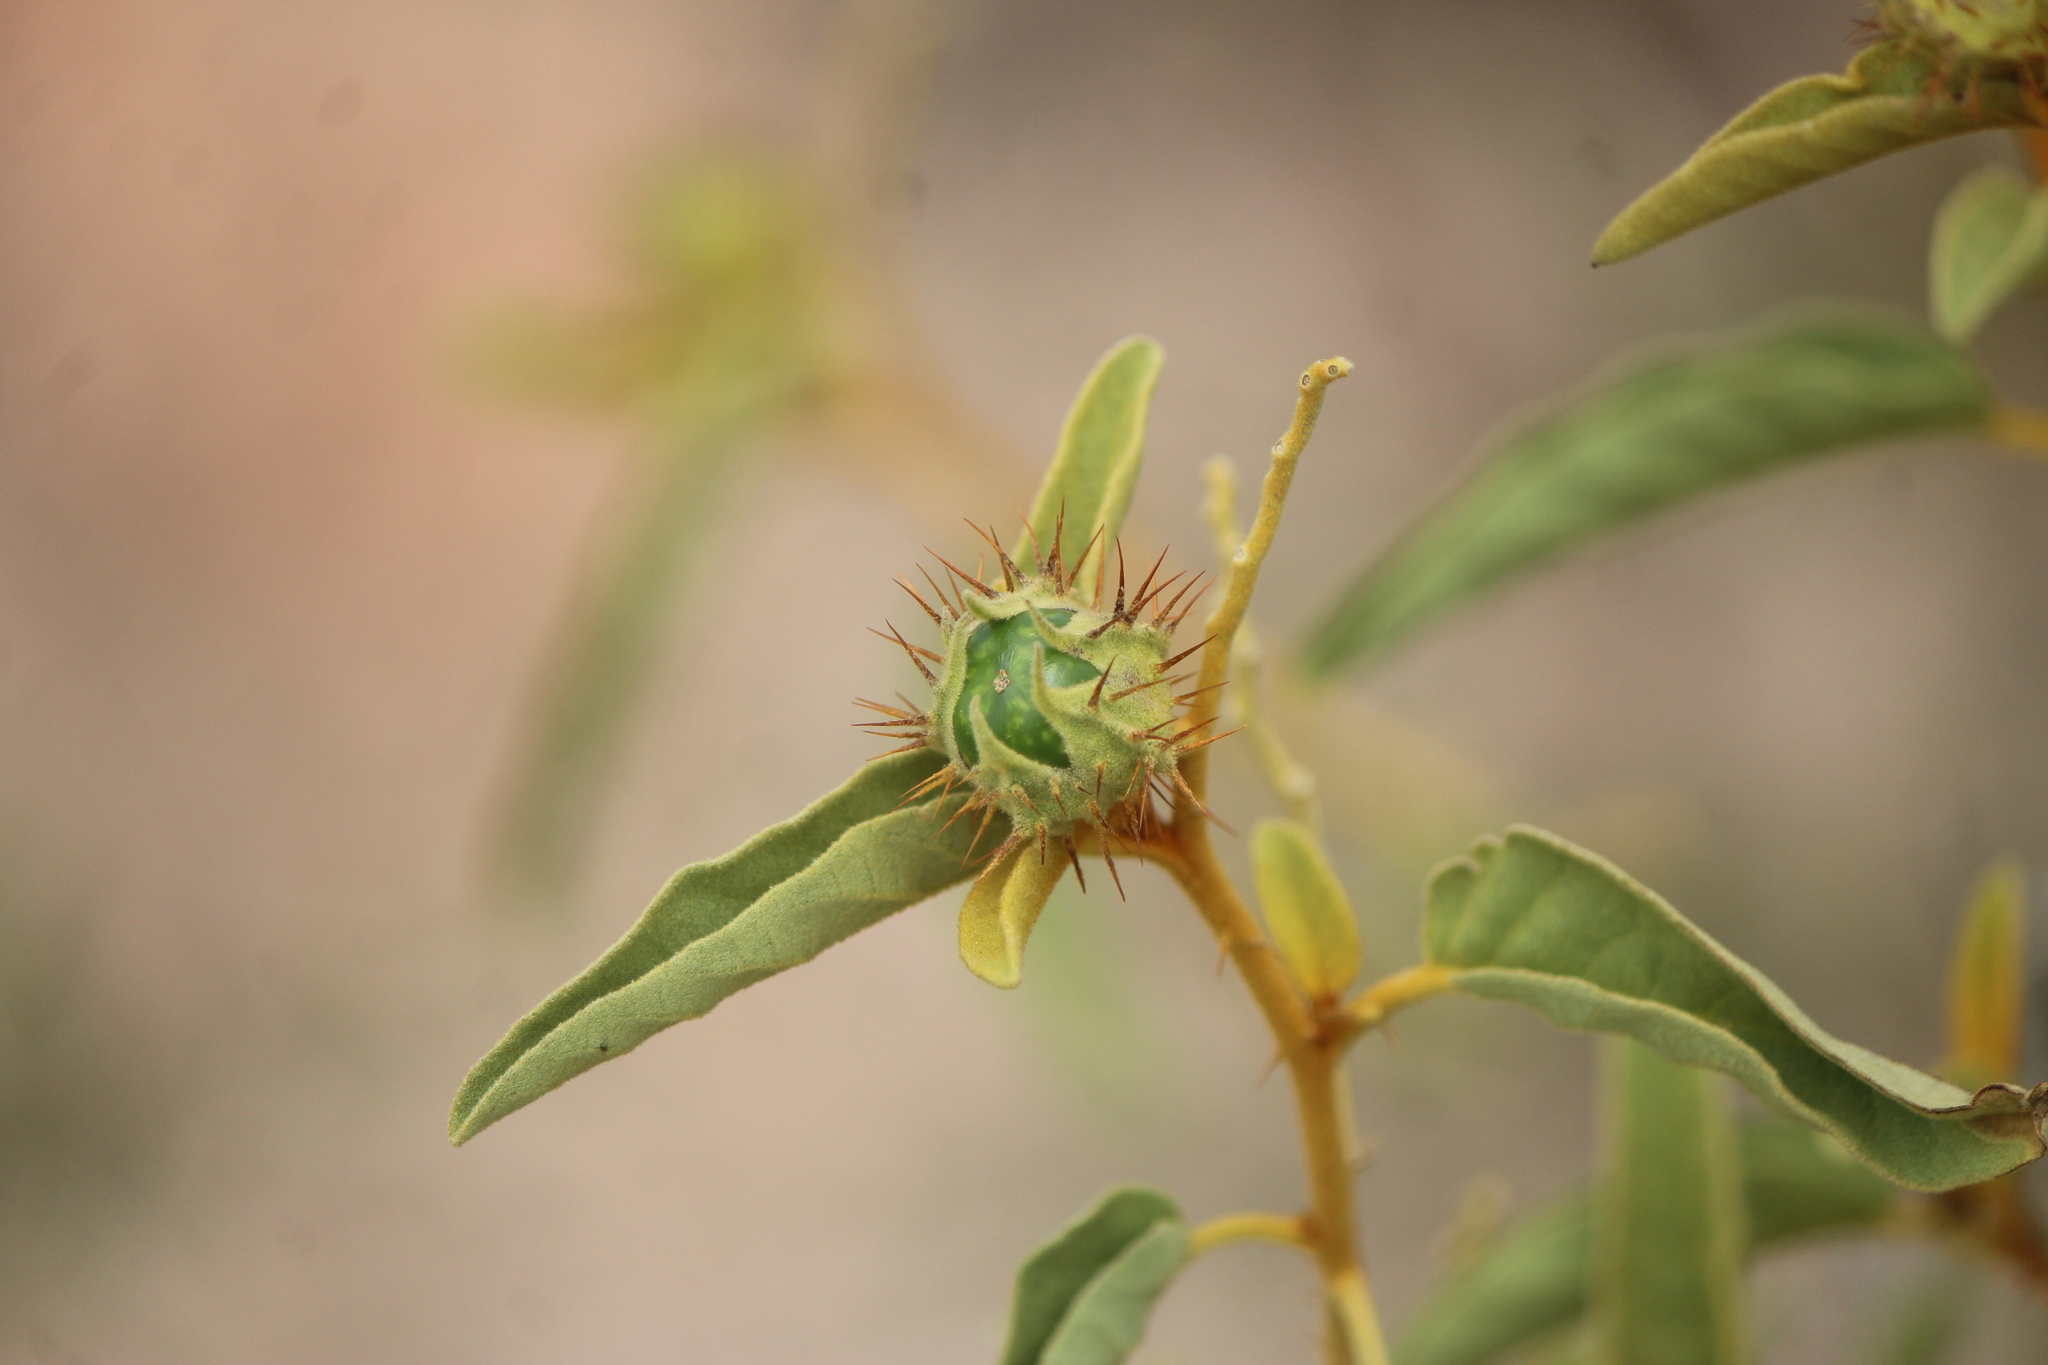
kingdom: Plantae
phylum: Tracheophyta
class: Magnoliopsida
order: Solanales
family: Solanaceae
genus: Solanum
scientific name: Solanum houstonii
